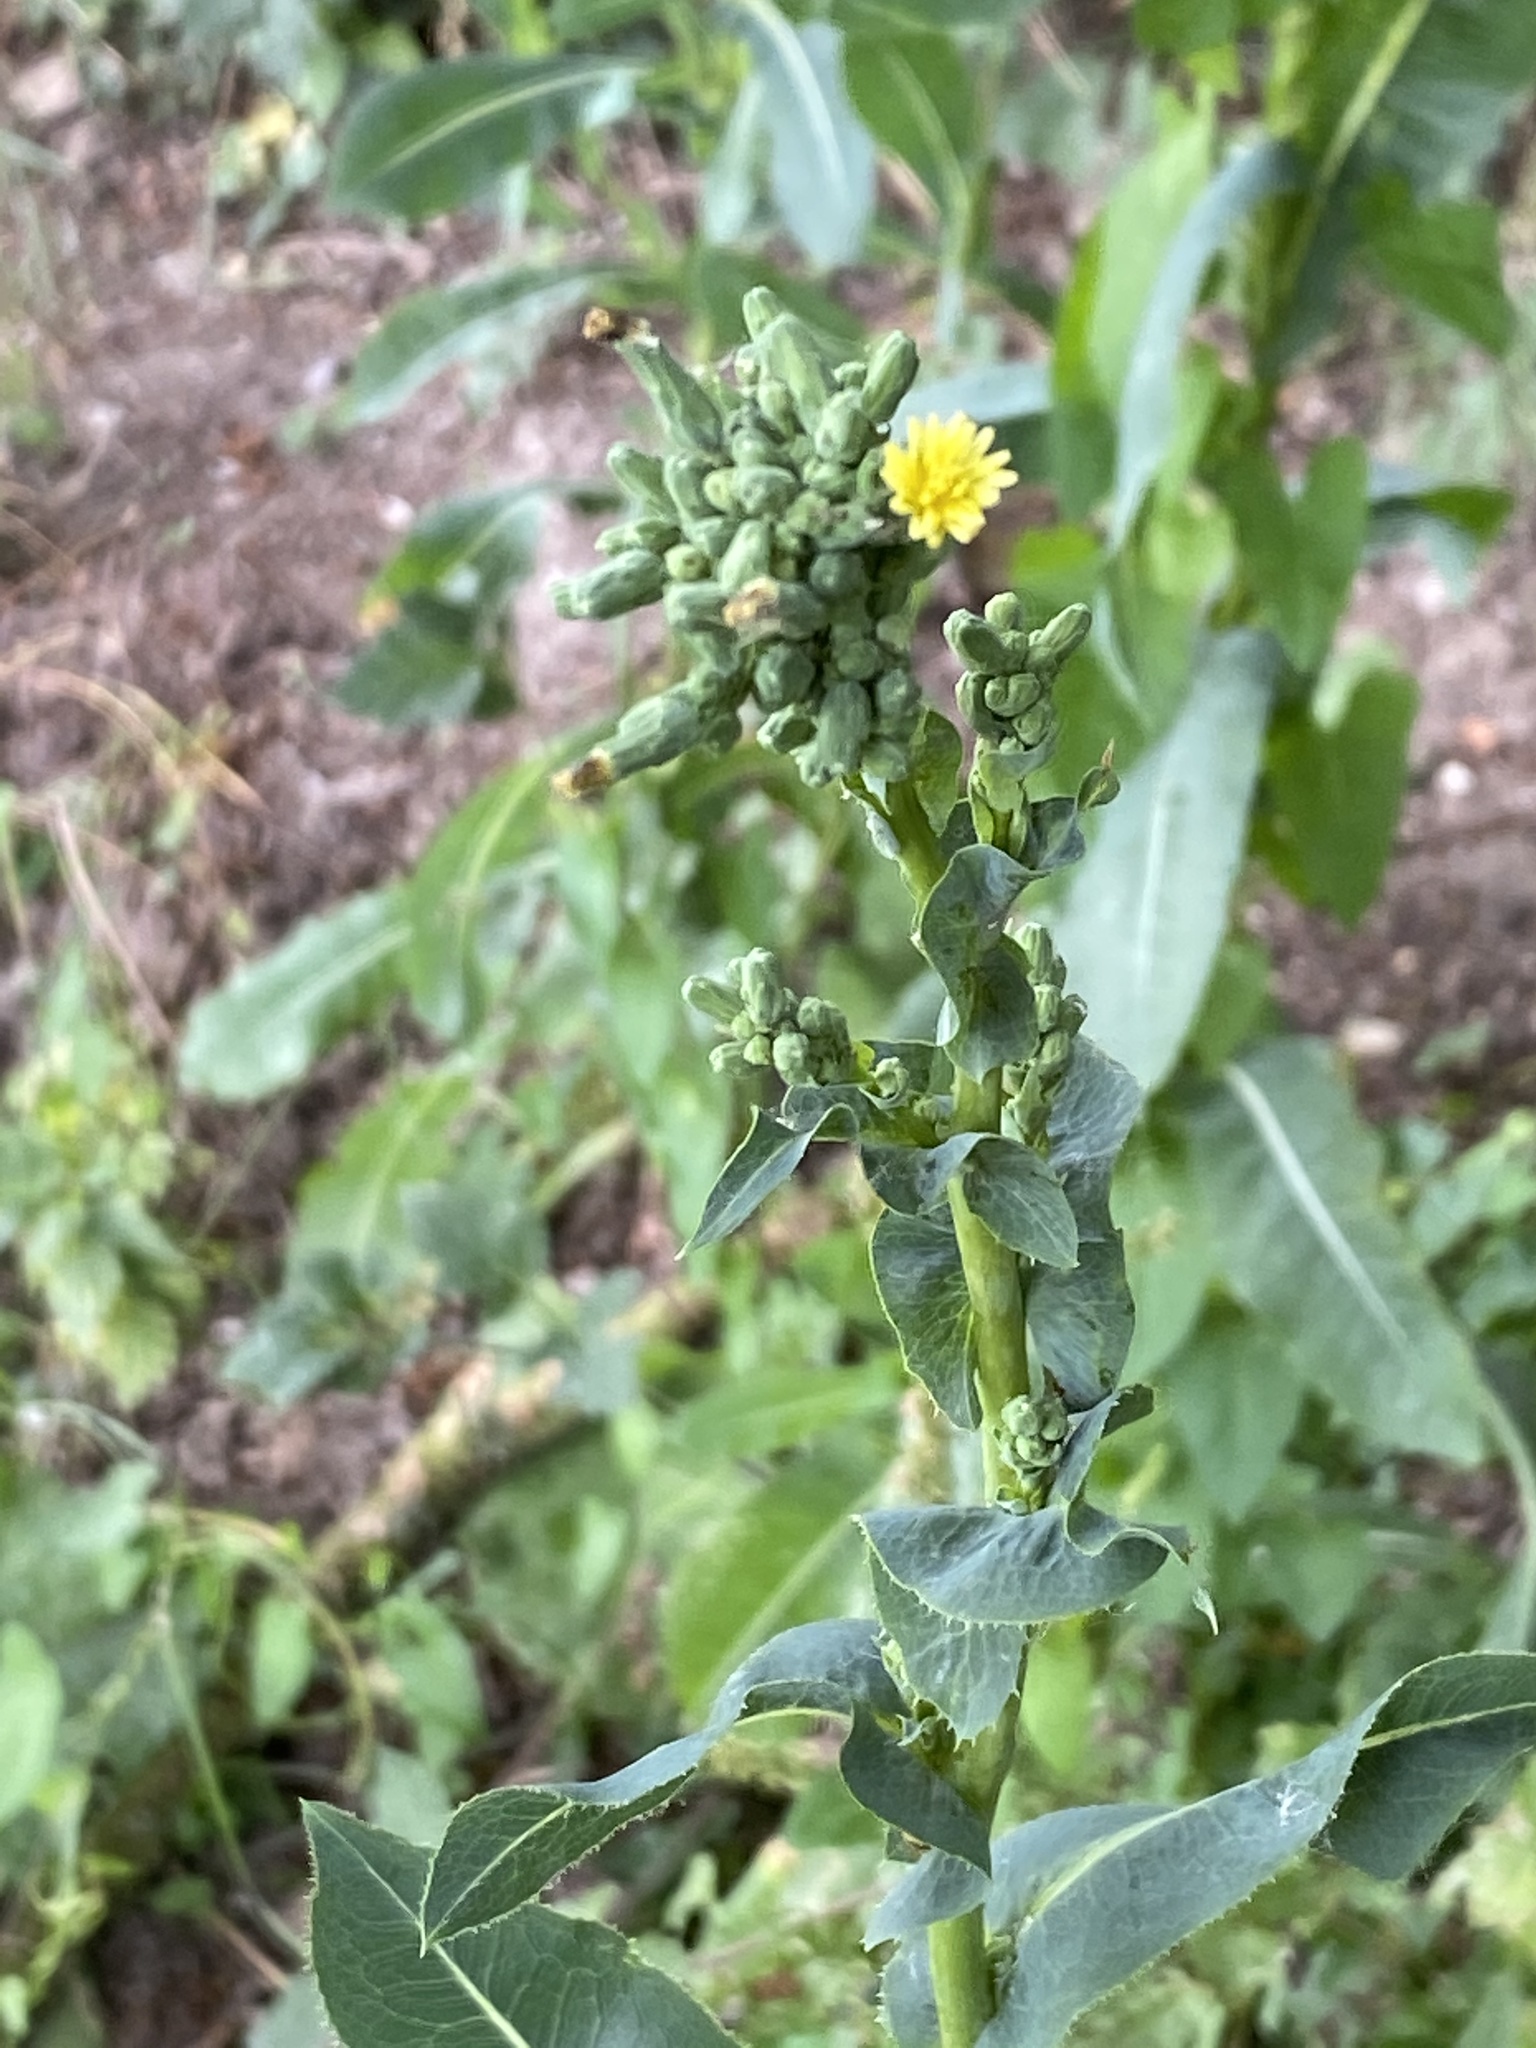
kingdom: Plantae
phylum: Tracheophyta
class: Magnoliopsida
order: Asterales
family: Asteraceae
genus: Lactuca
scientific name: Lactuca serriola
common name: Prickly lettuce
